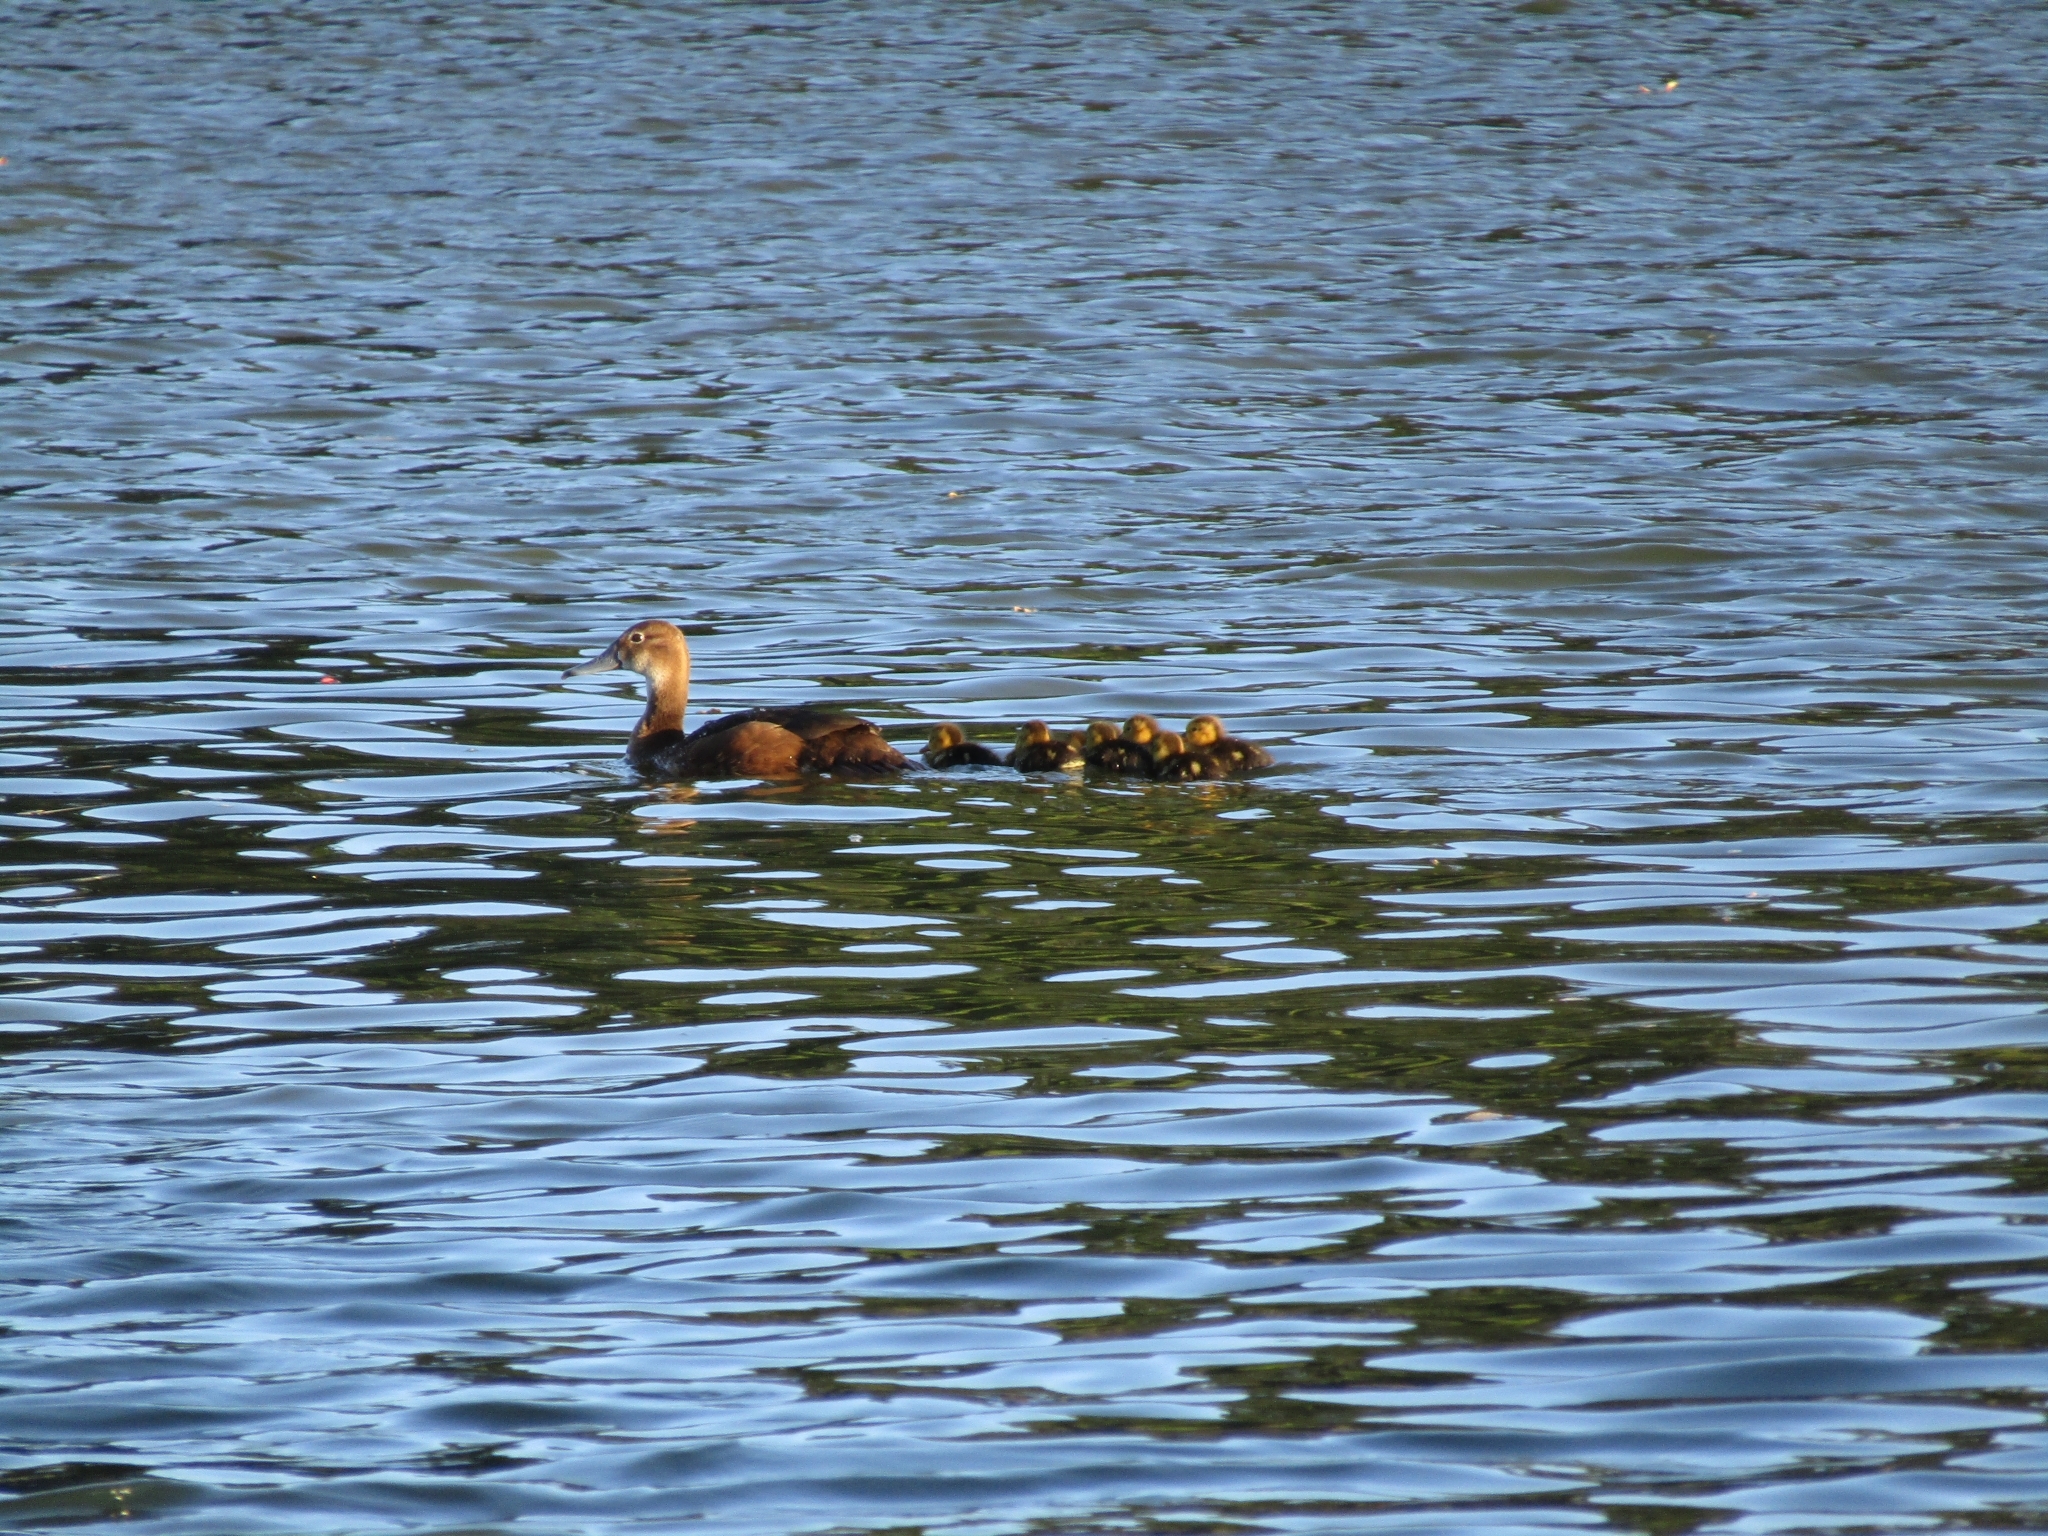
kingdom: Animalia
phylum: Chordata
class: Aves
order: Anseriformes
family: Anatidae
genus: Netta
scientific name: Netta peposaca
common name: Rosy-billed pochard
